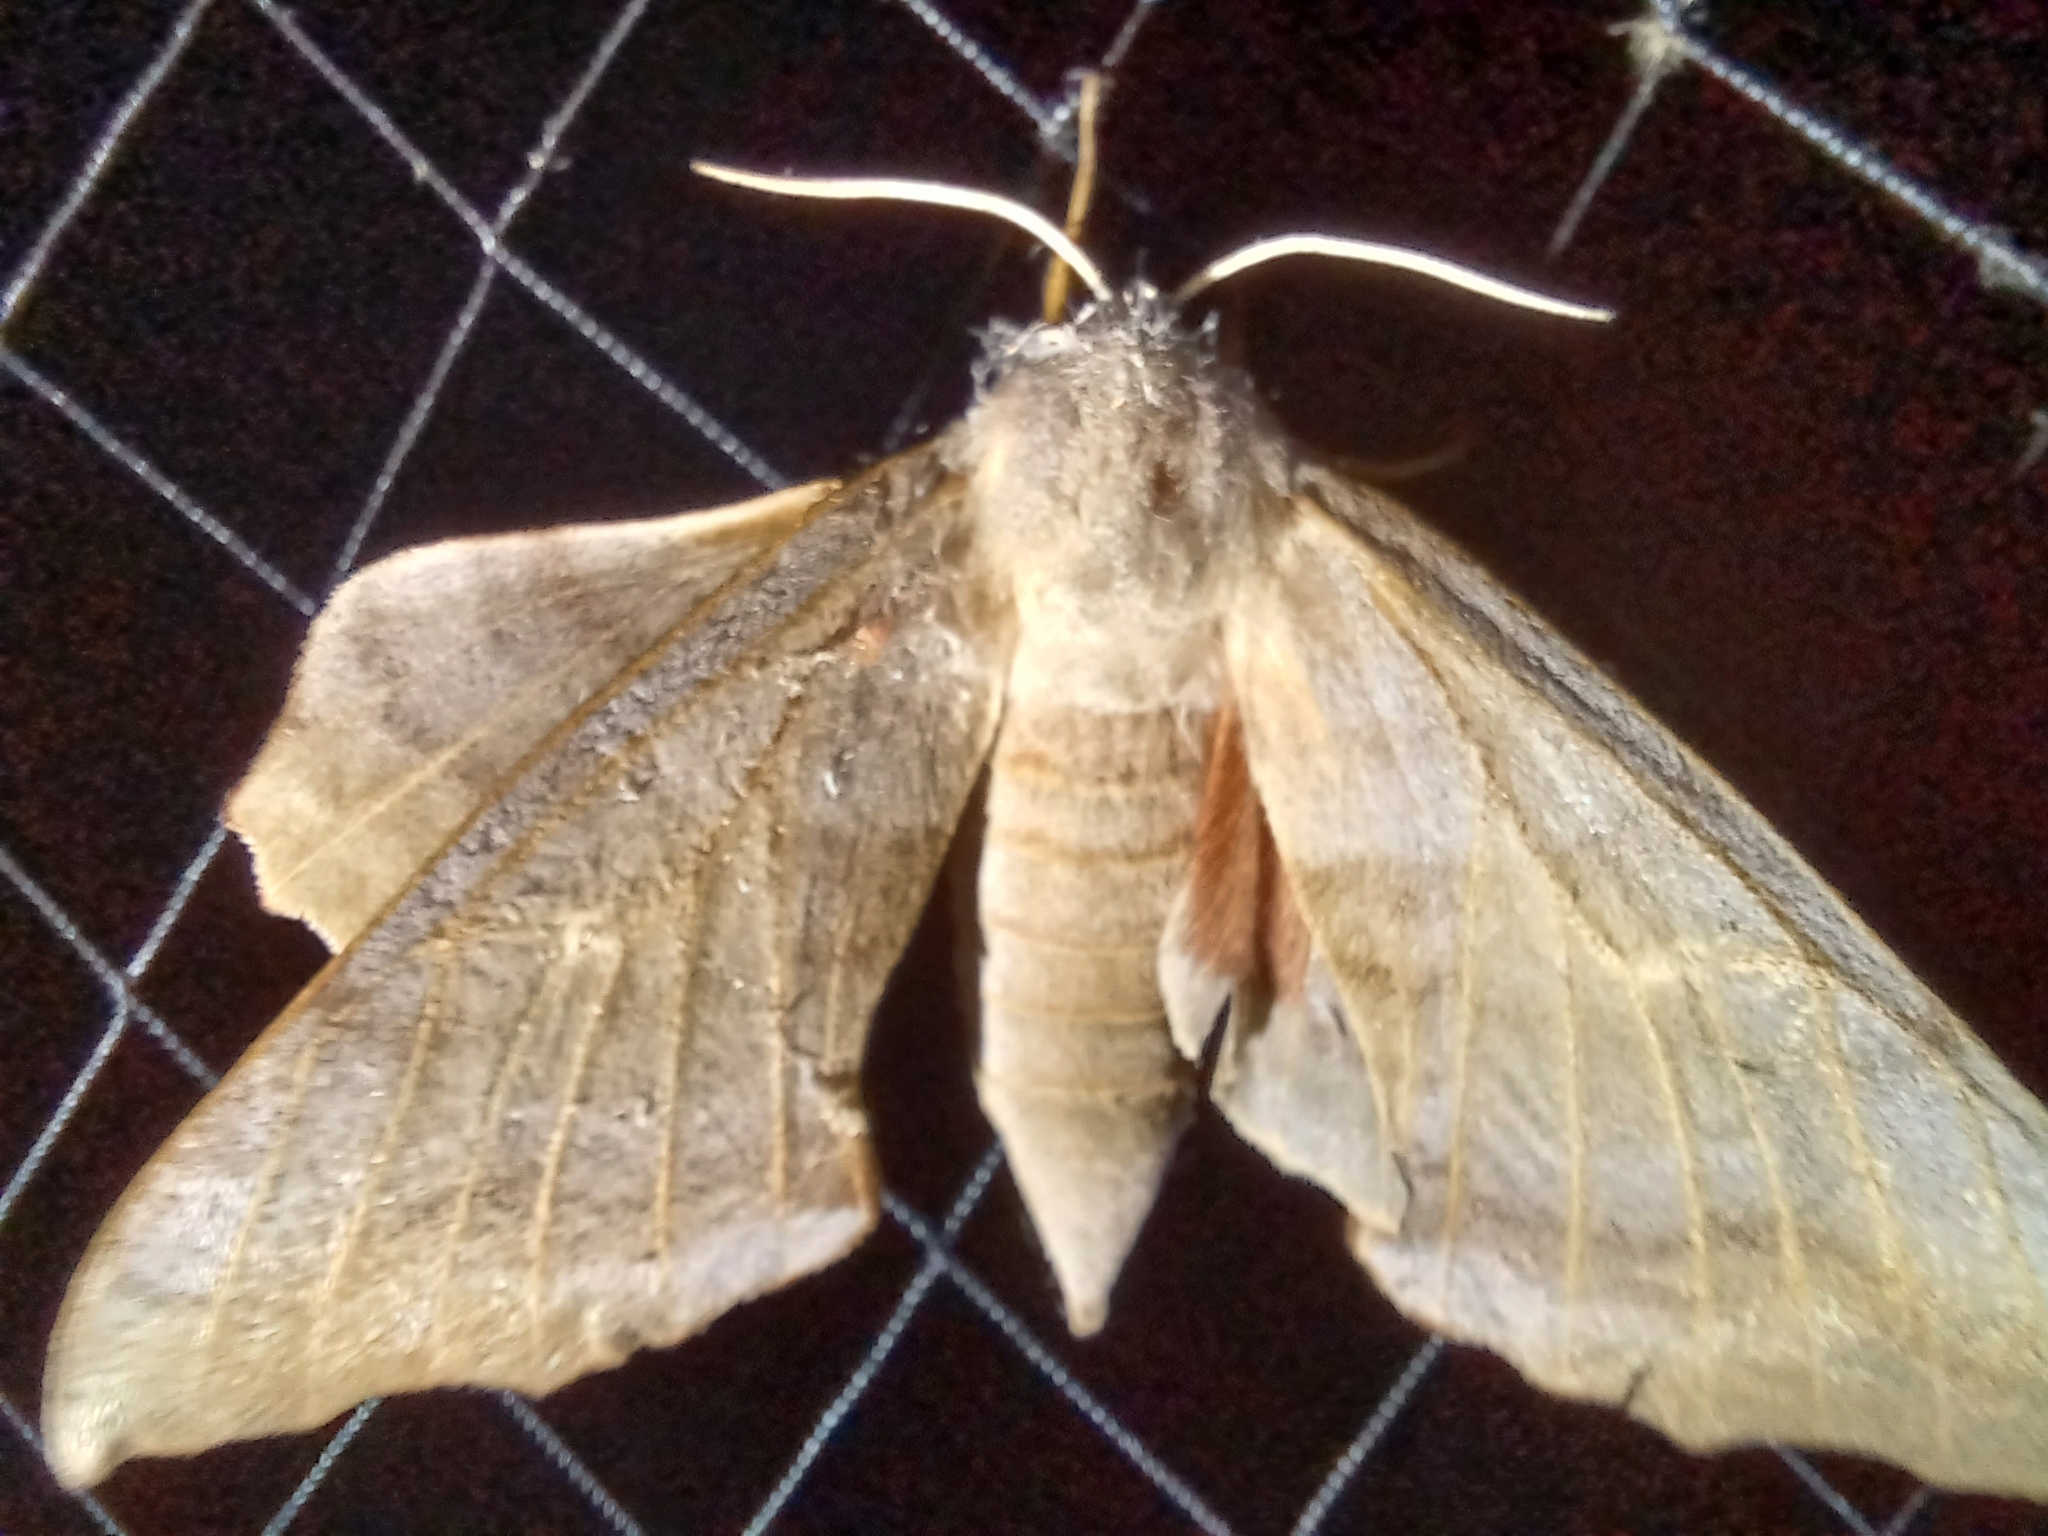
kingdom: Animalia
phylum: Arthropoda
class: Insecta
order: Lepidoptera
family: Sphingidae
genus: Laothoe
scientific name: Laothoe populi
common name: Poplar hawk-moth
